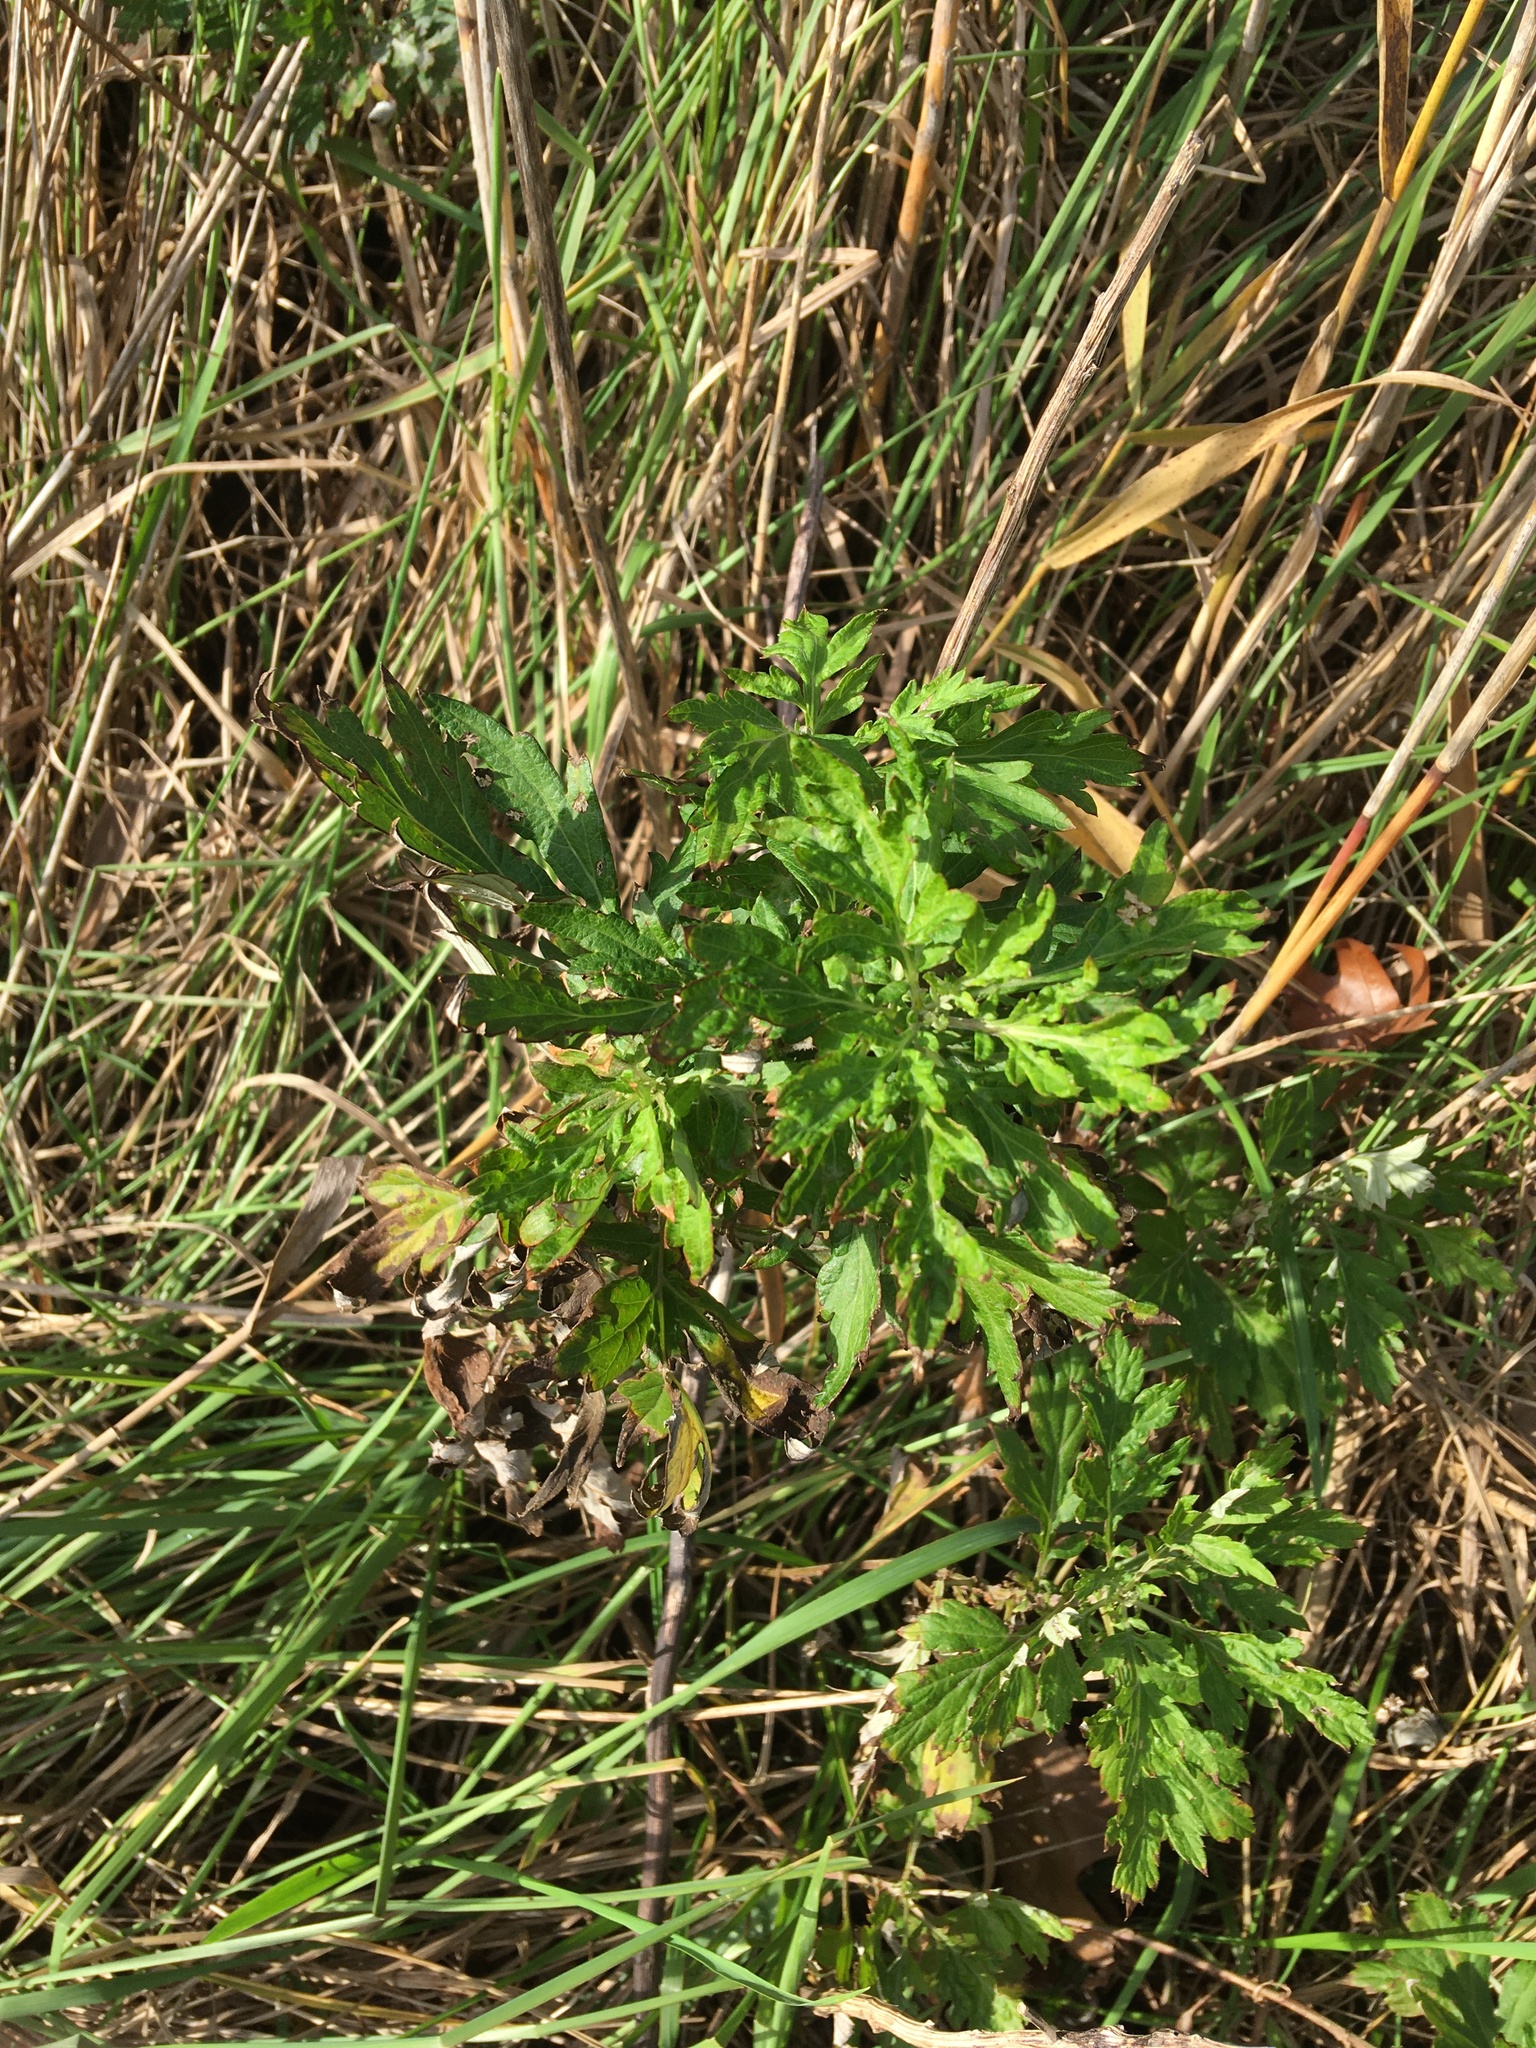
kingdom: Plantae
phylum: Tracheophyta
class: Magnoliopsida
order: Asterales
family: Asteraceae
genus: Artemisia
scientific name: Artemisia vulgaris
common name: Mugwort
